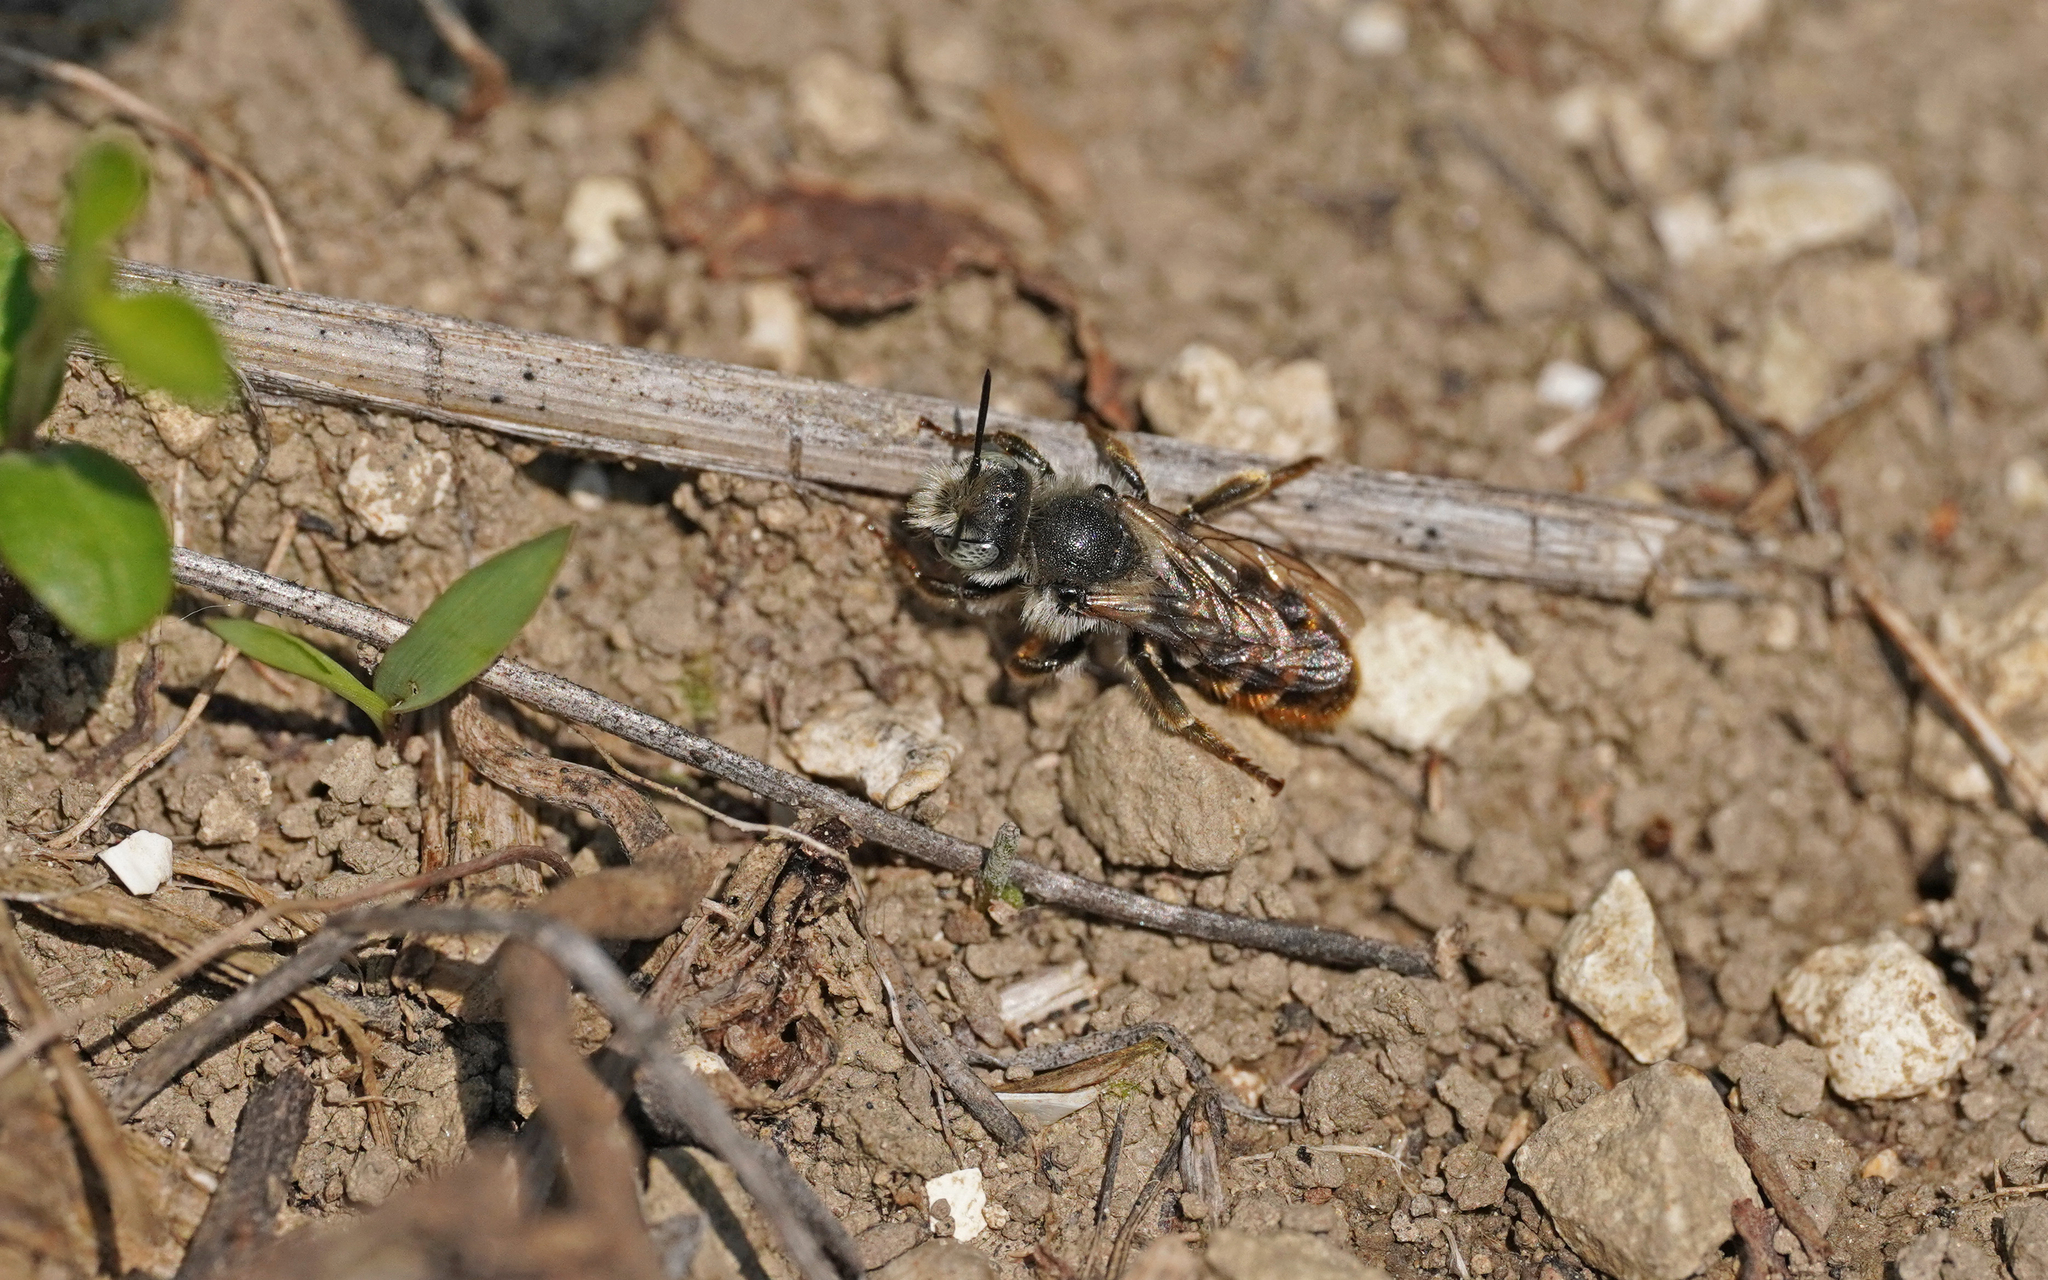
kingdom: Animalia
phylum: Arthropoda
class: Insecta
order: Hymenoptera
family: Megachilidae
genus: Osmia
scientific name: Osmia rufohirta
